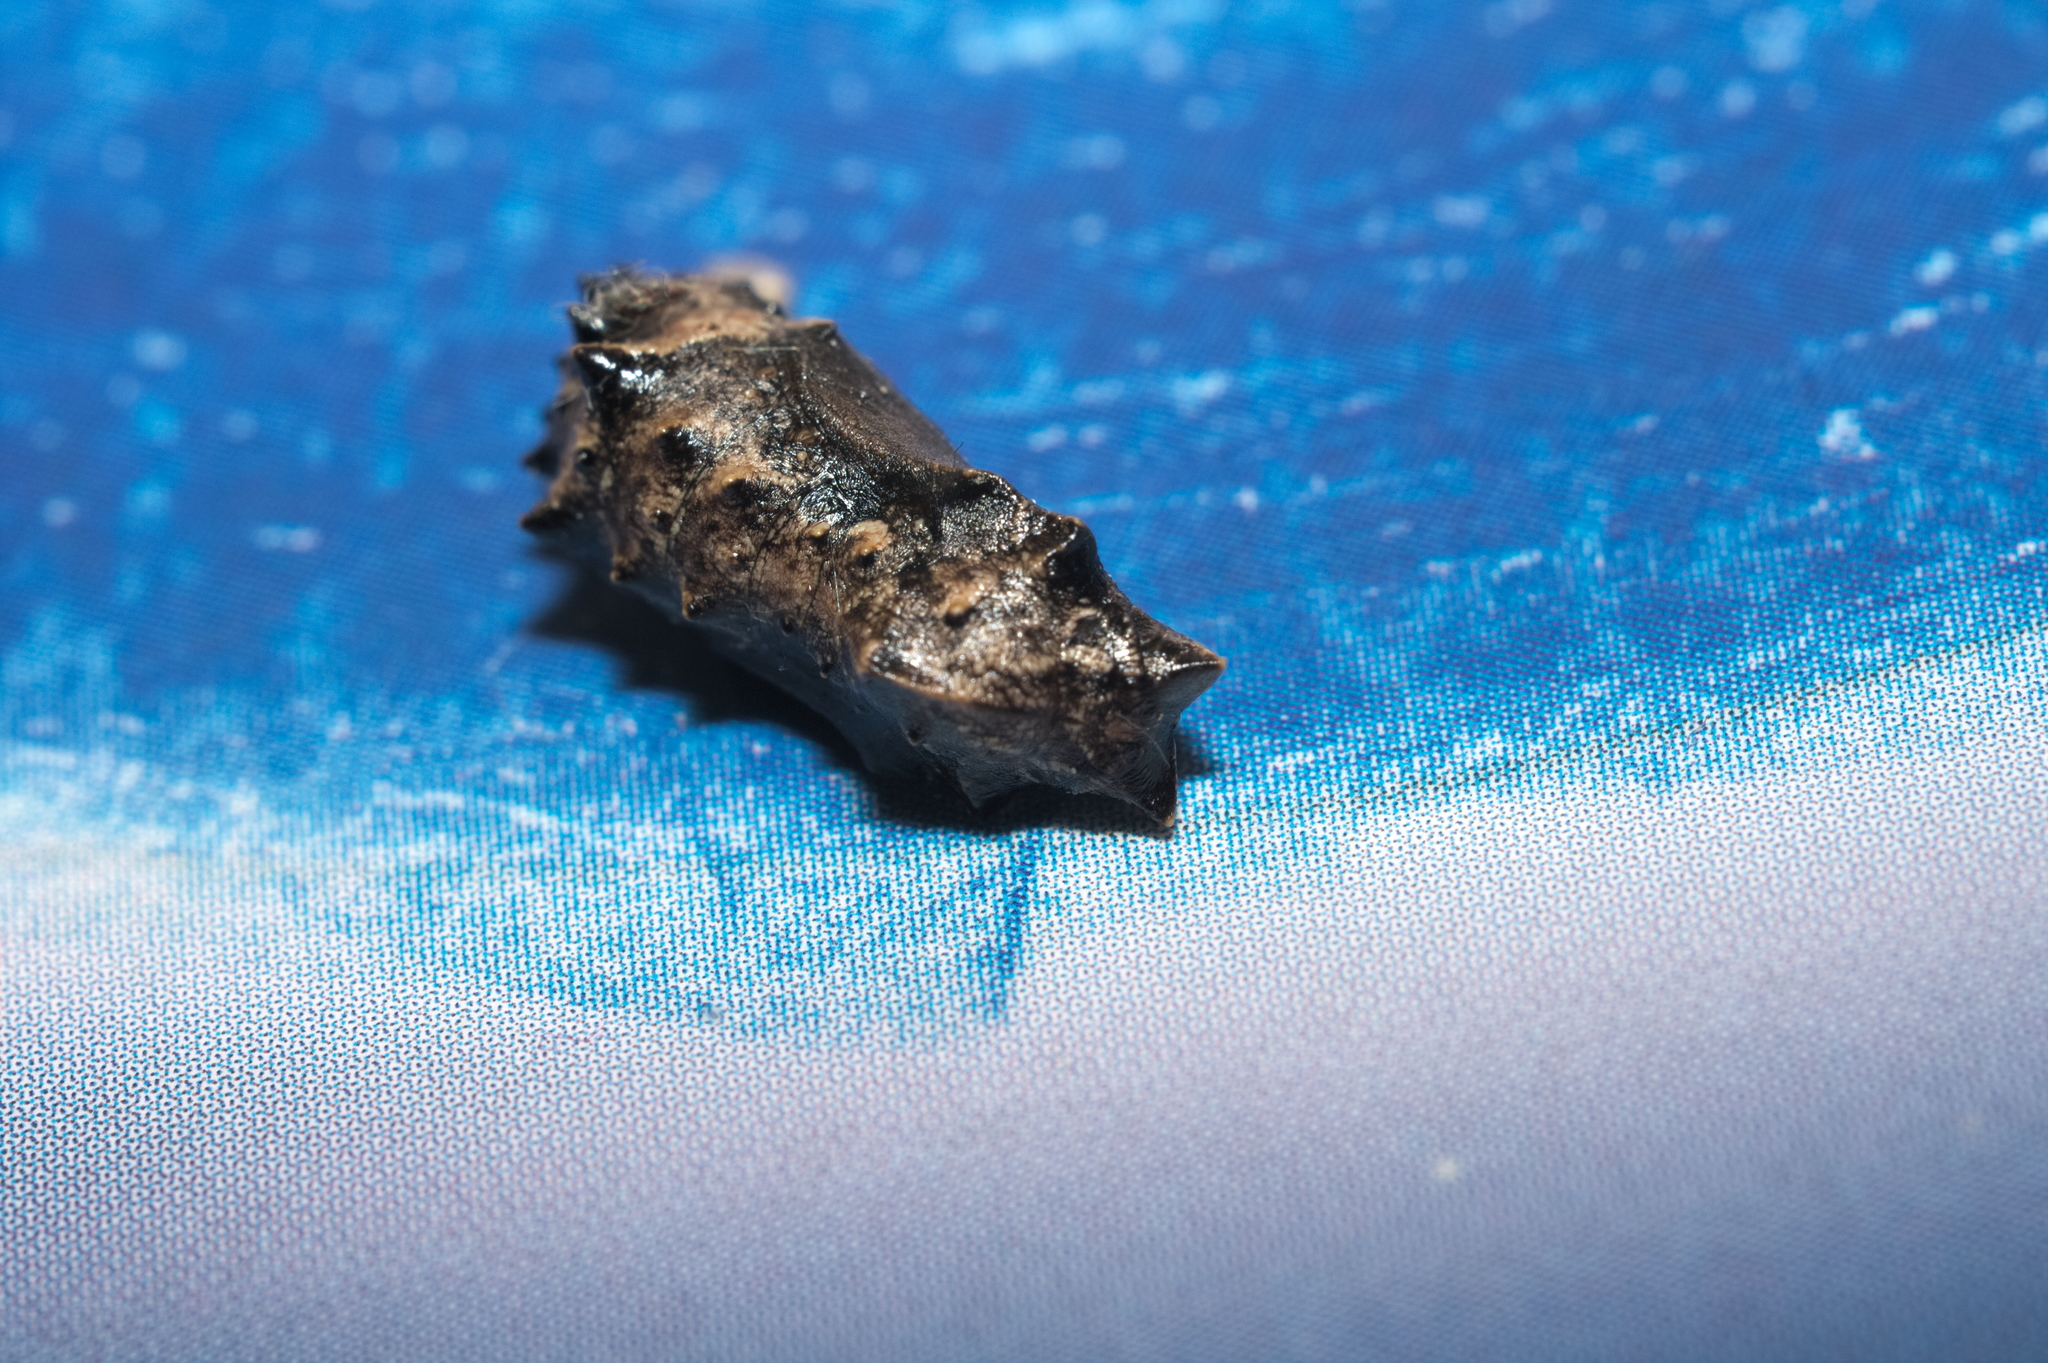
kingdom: Animalia
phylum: Arthropoda
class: Insecta
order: Lepidoptera
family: Nymphalidae
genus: Araschnia
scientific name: Araschnia levana
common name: Map butterfly
